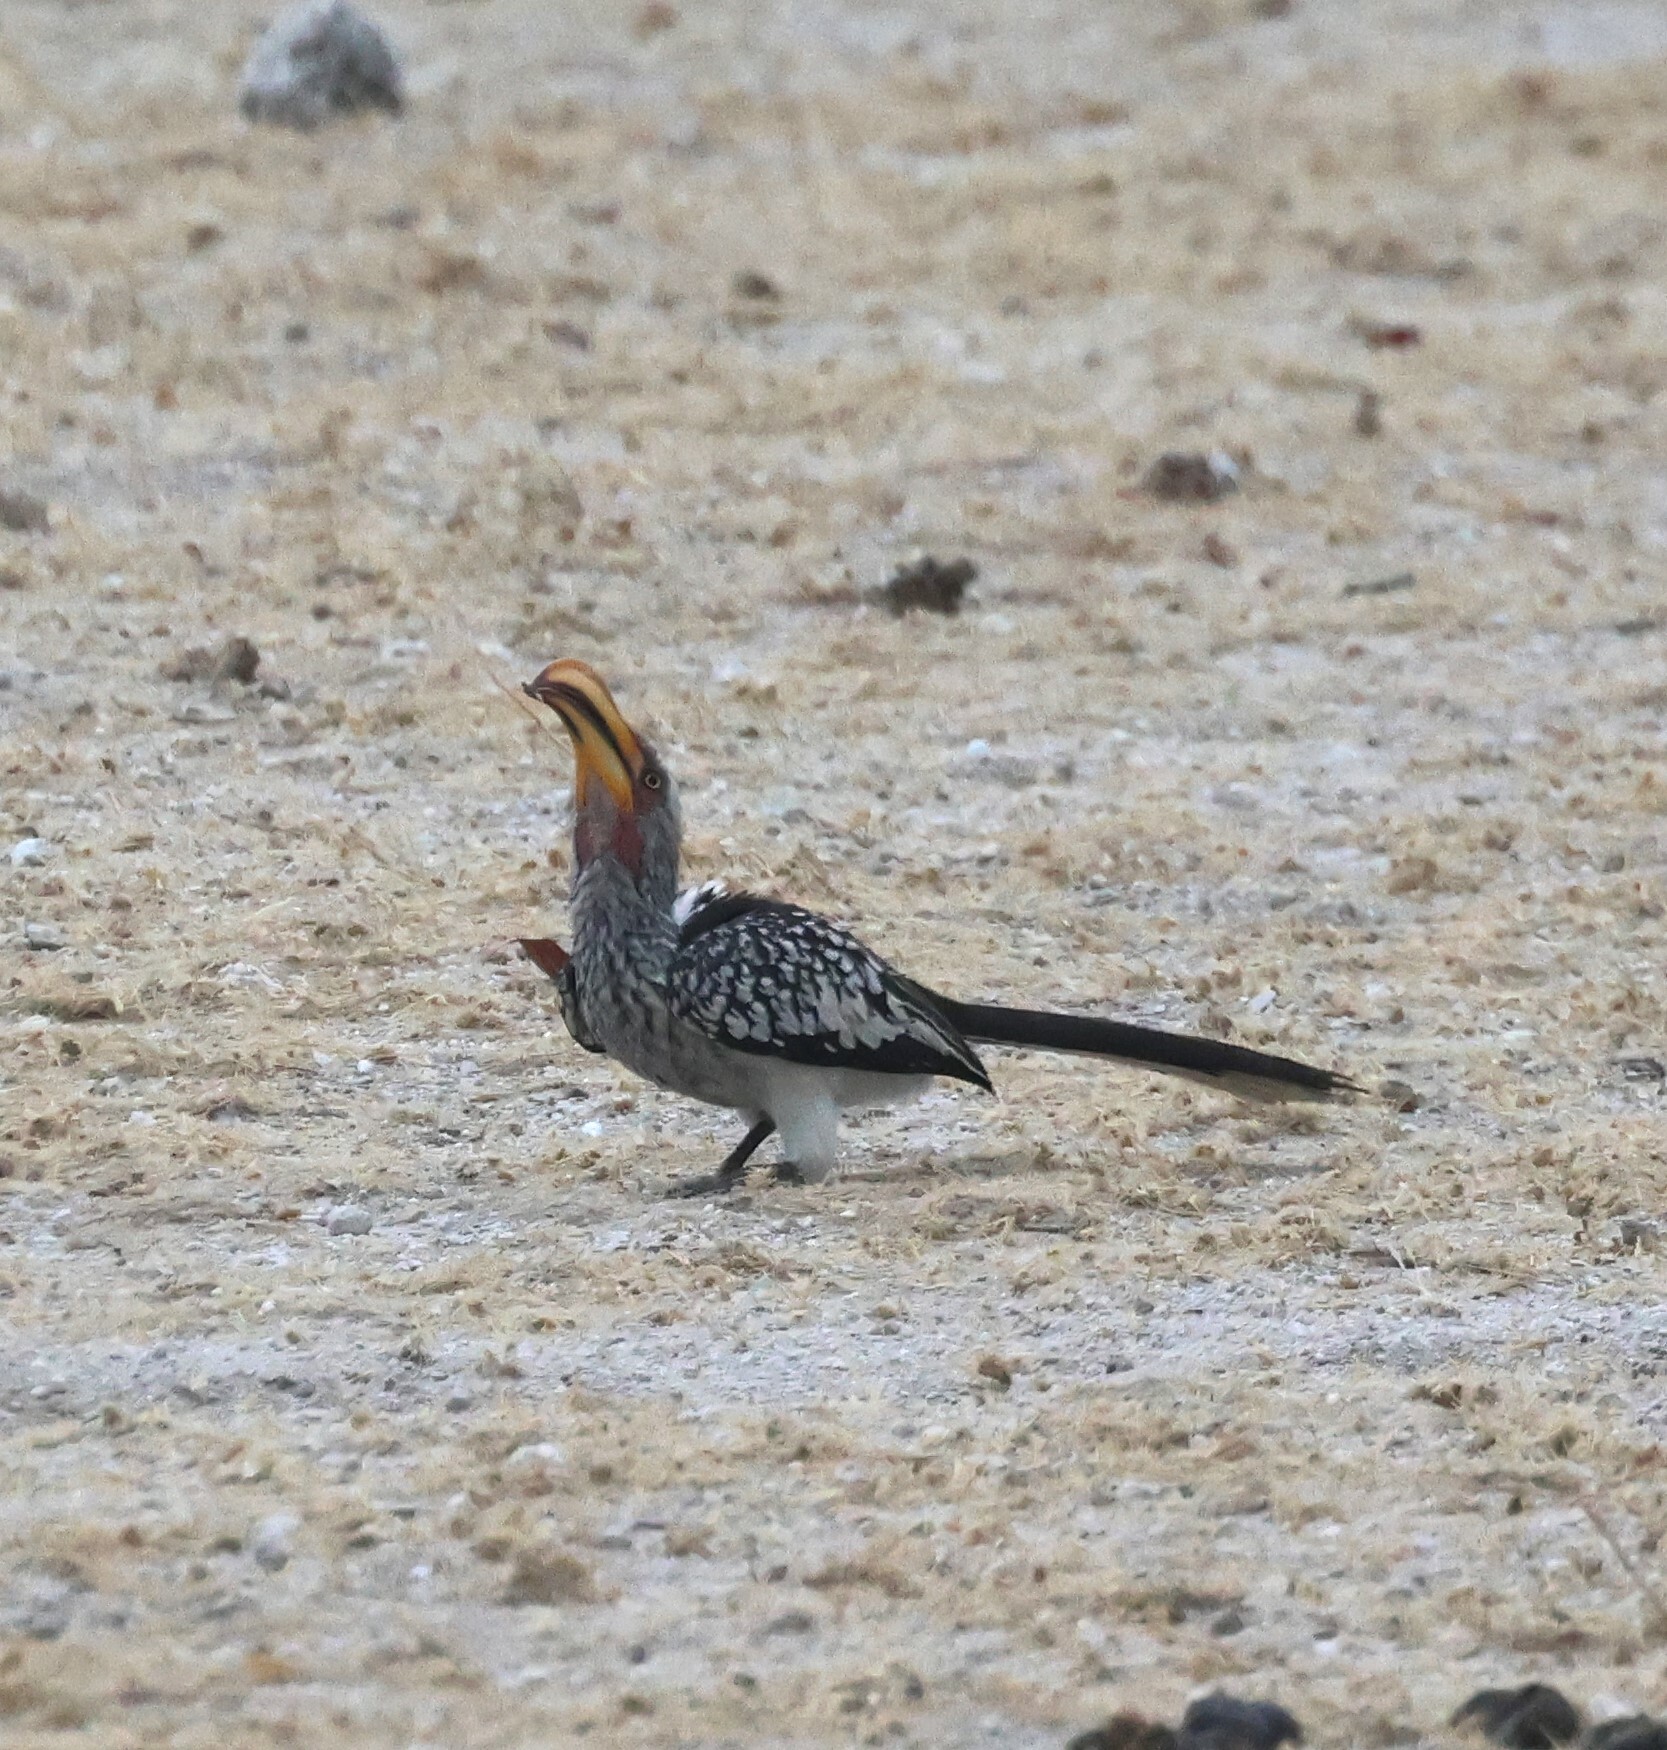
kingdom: Animalia
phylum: Chordata
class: Aves
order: Bucerotiformes
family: Bucerotidae
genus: Tockus
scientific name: Tockus leucomelas
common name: Southern yellow-billed hornbill
